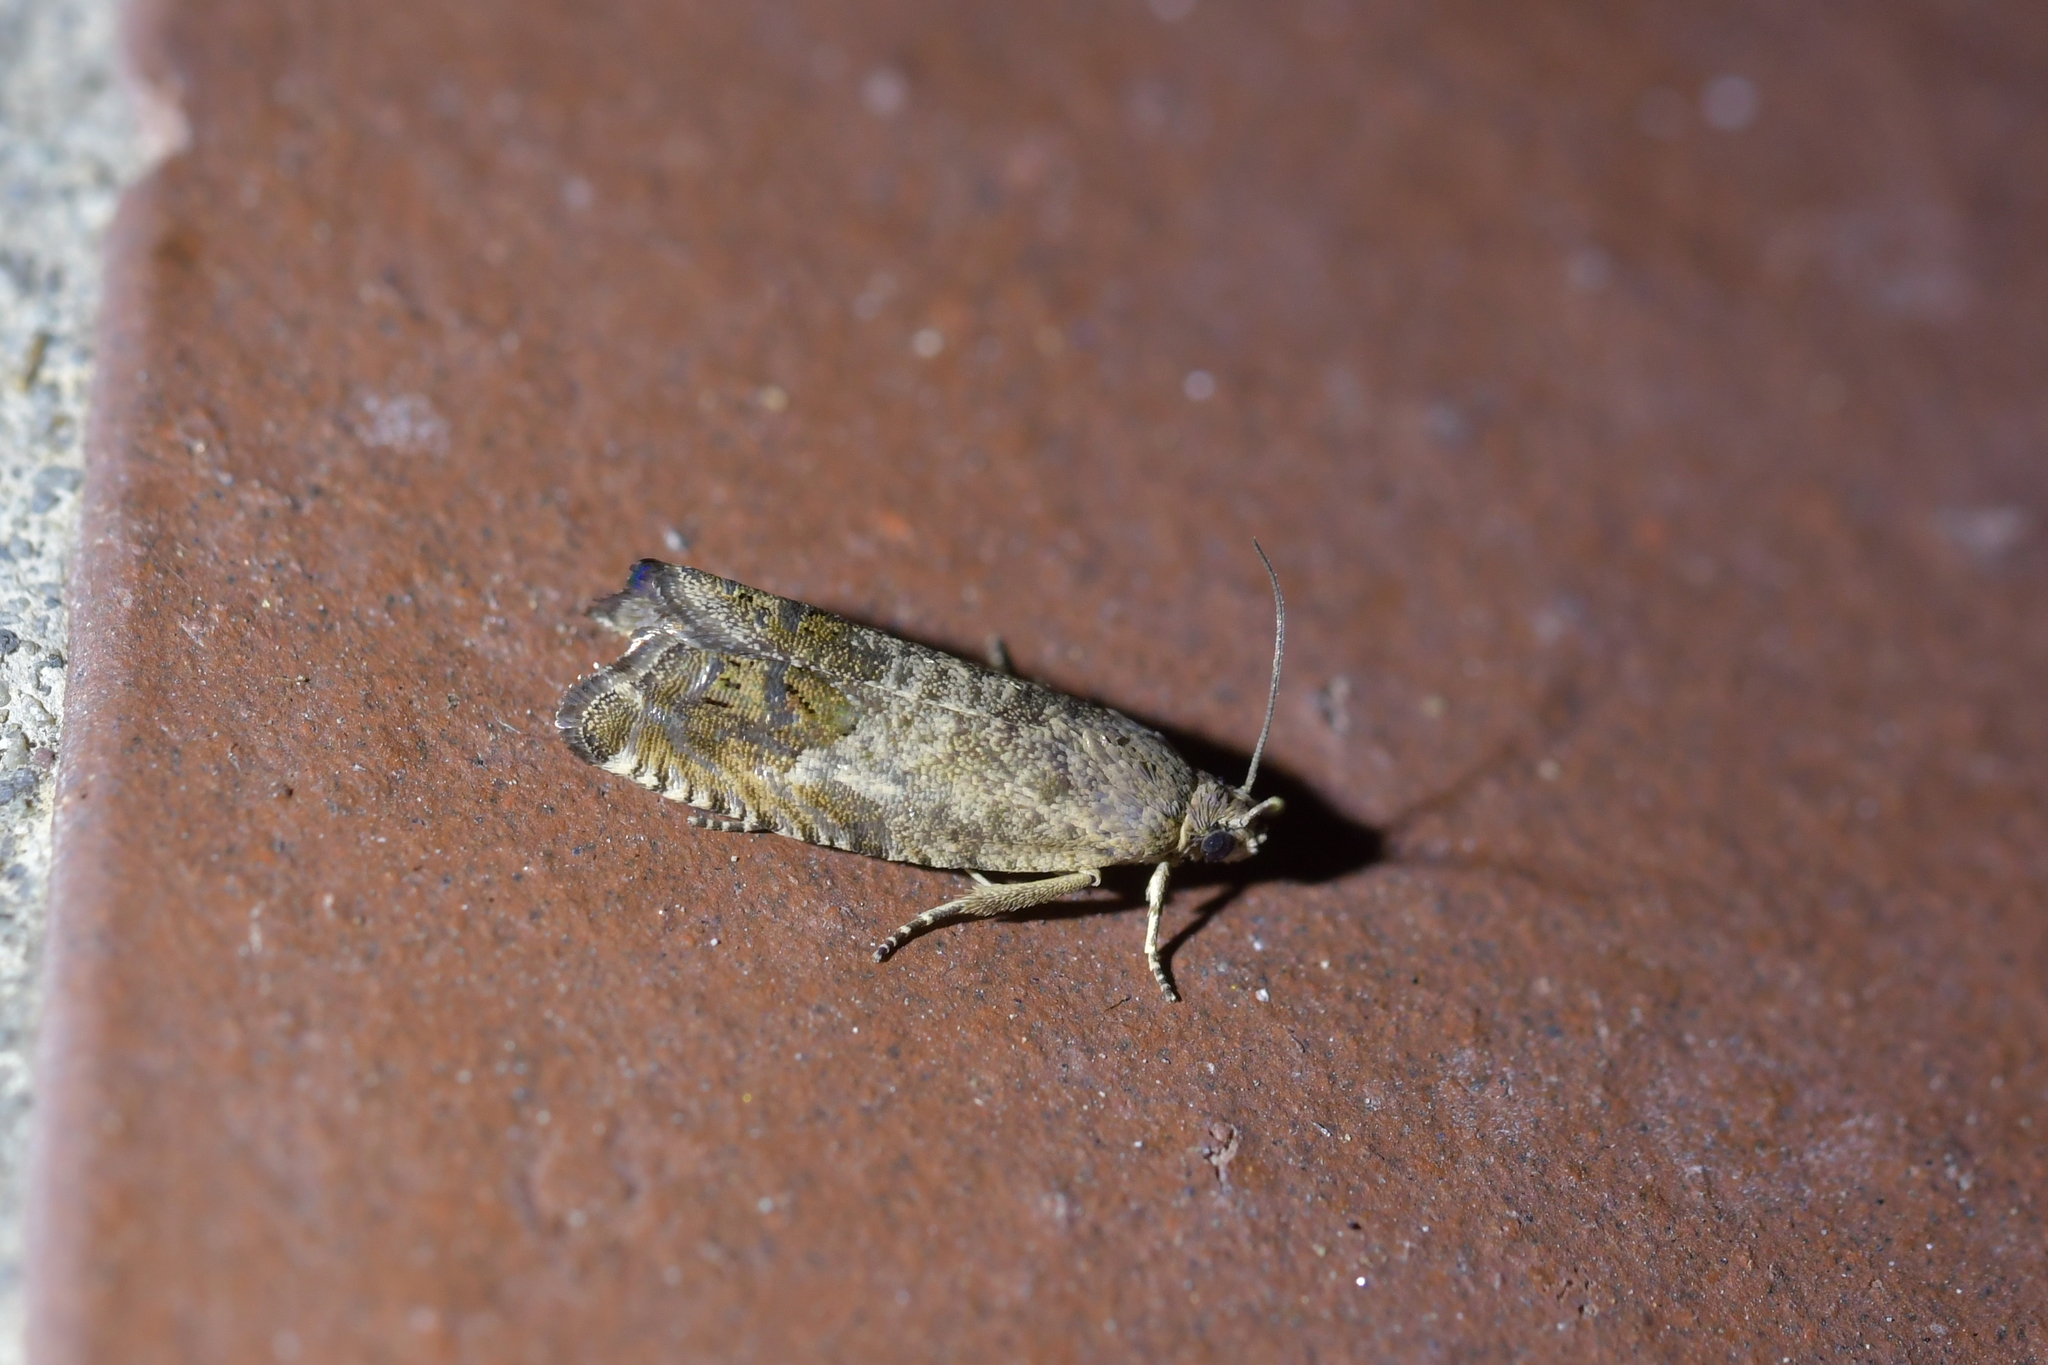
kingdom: Animalia
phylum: Arthropoda
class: Insecta
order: Lepidoptera
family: Tortricidae
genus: Cydia
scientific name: Cydia succedana
